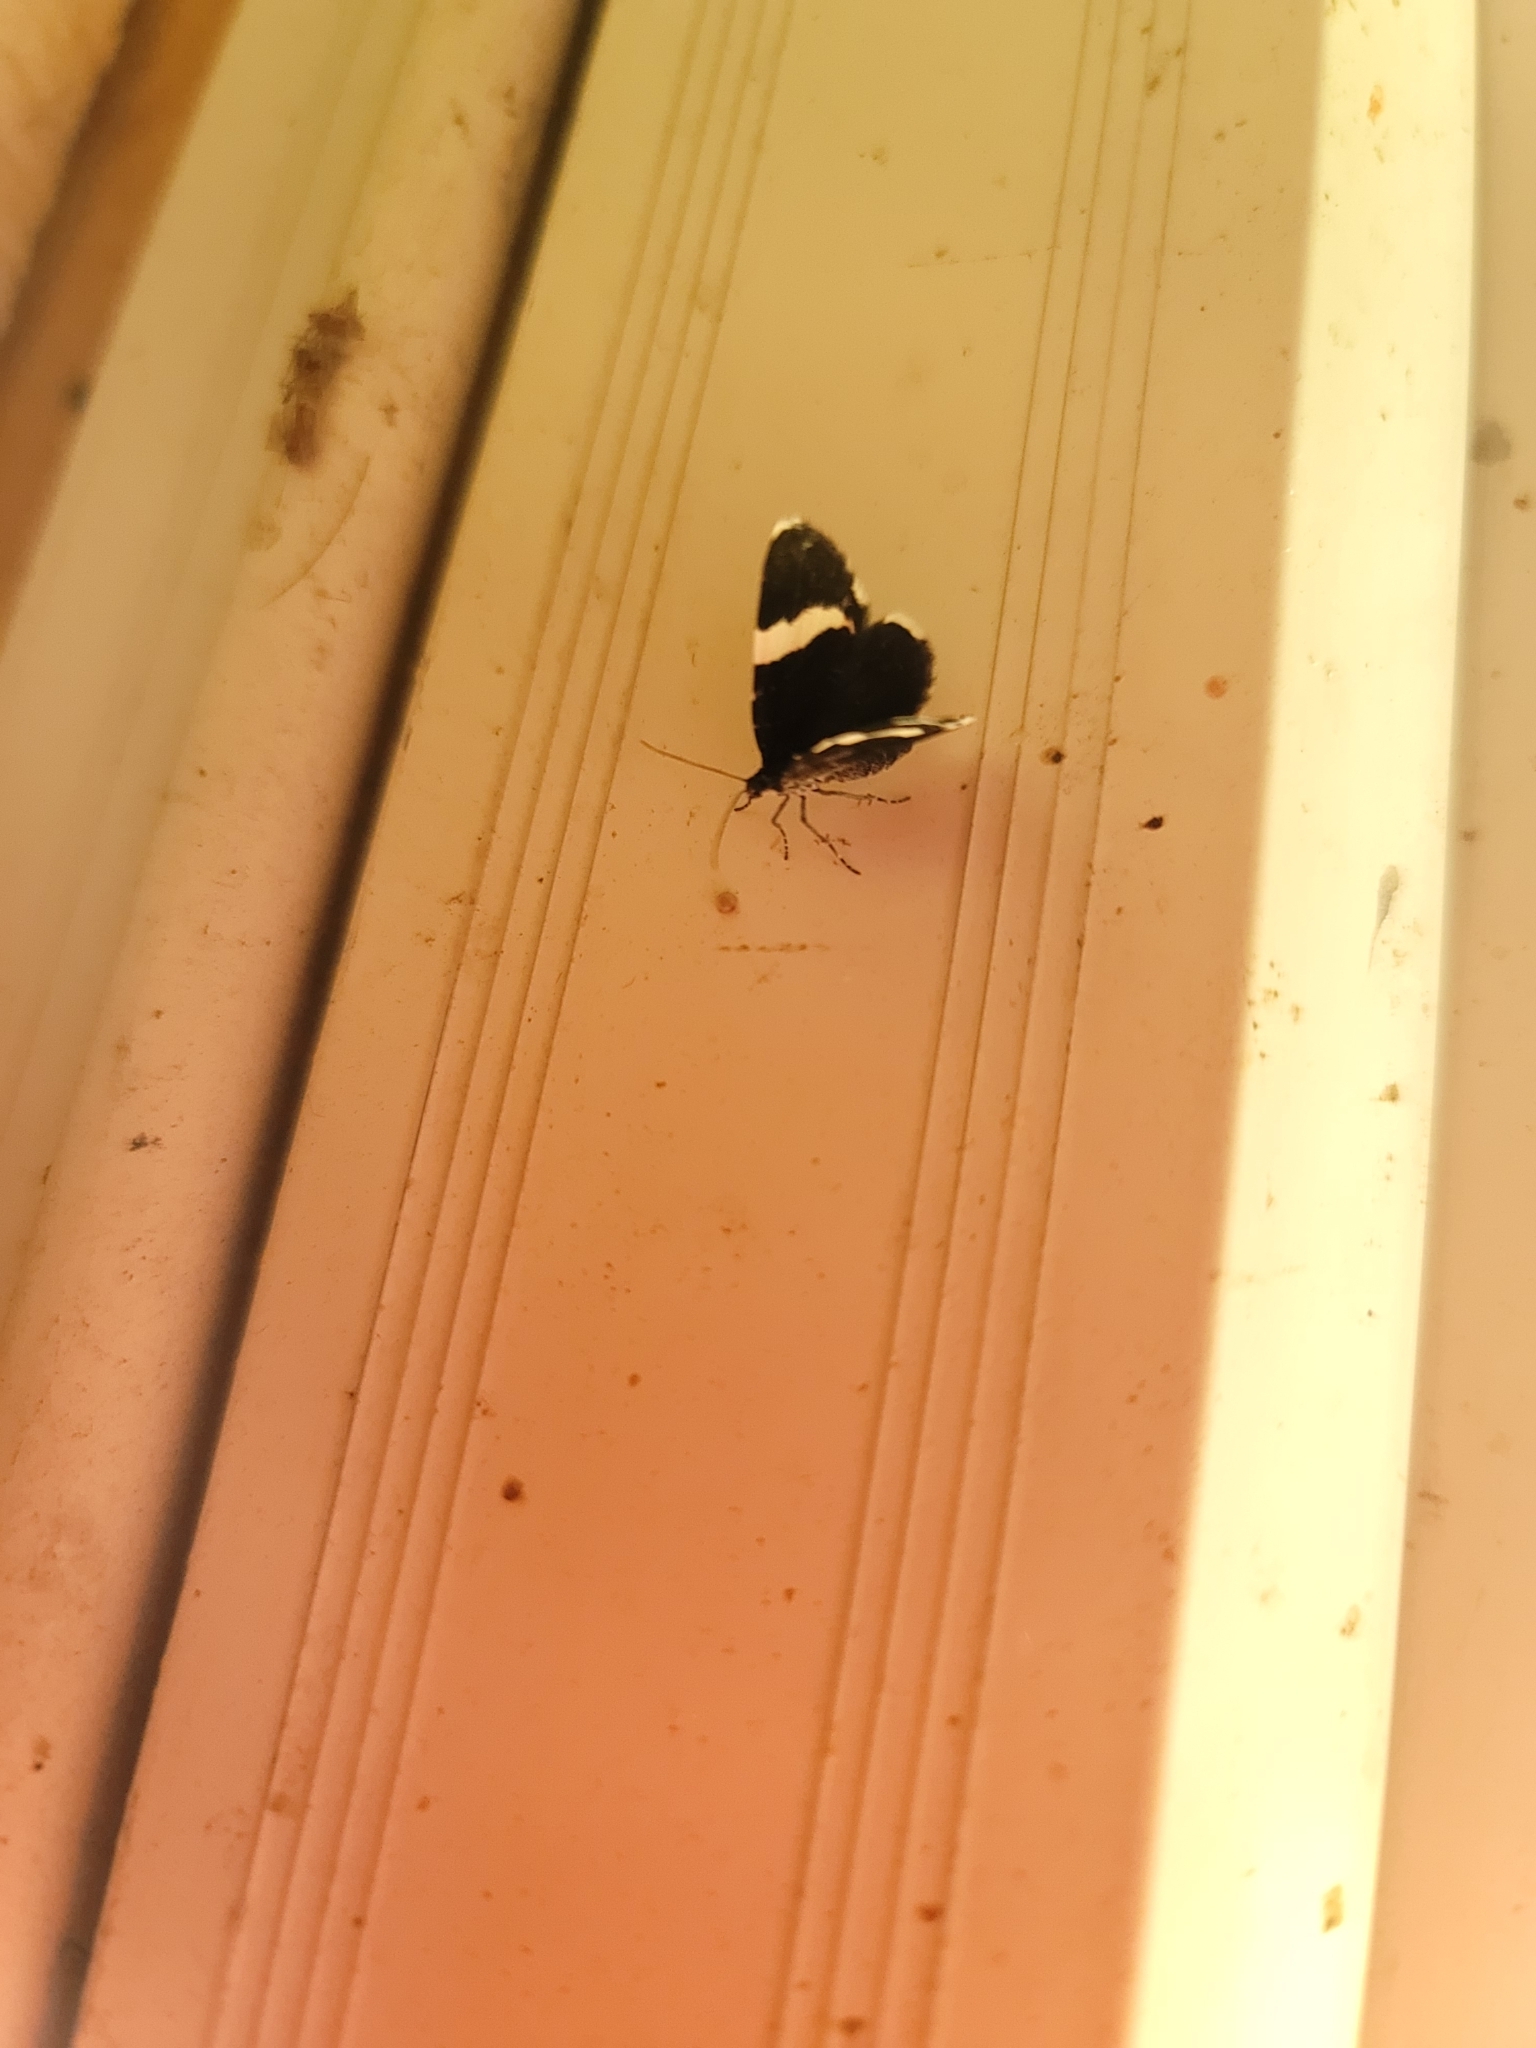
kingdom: Animalia
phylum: Arthropoda
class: Insecta
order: Lepidoptera
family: Geometridae
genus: Trichodezia
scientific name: Trichodezia albovittata
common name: White striped black
